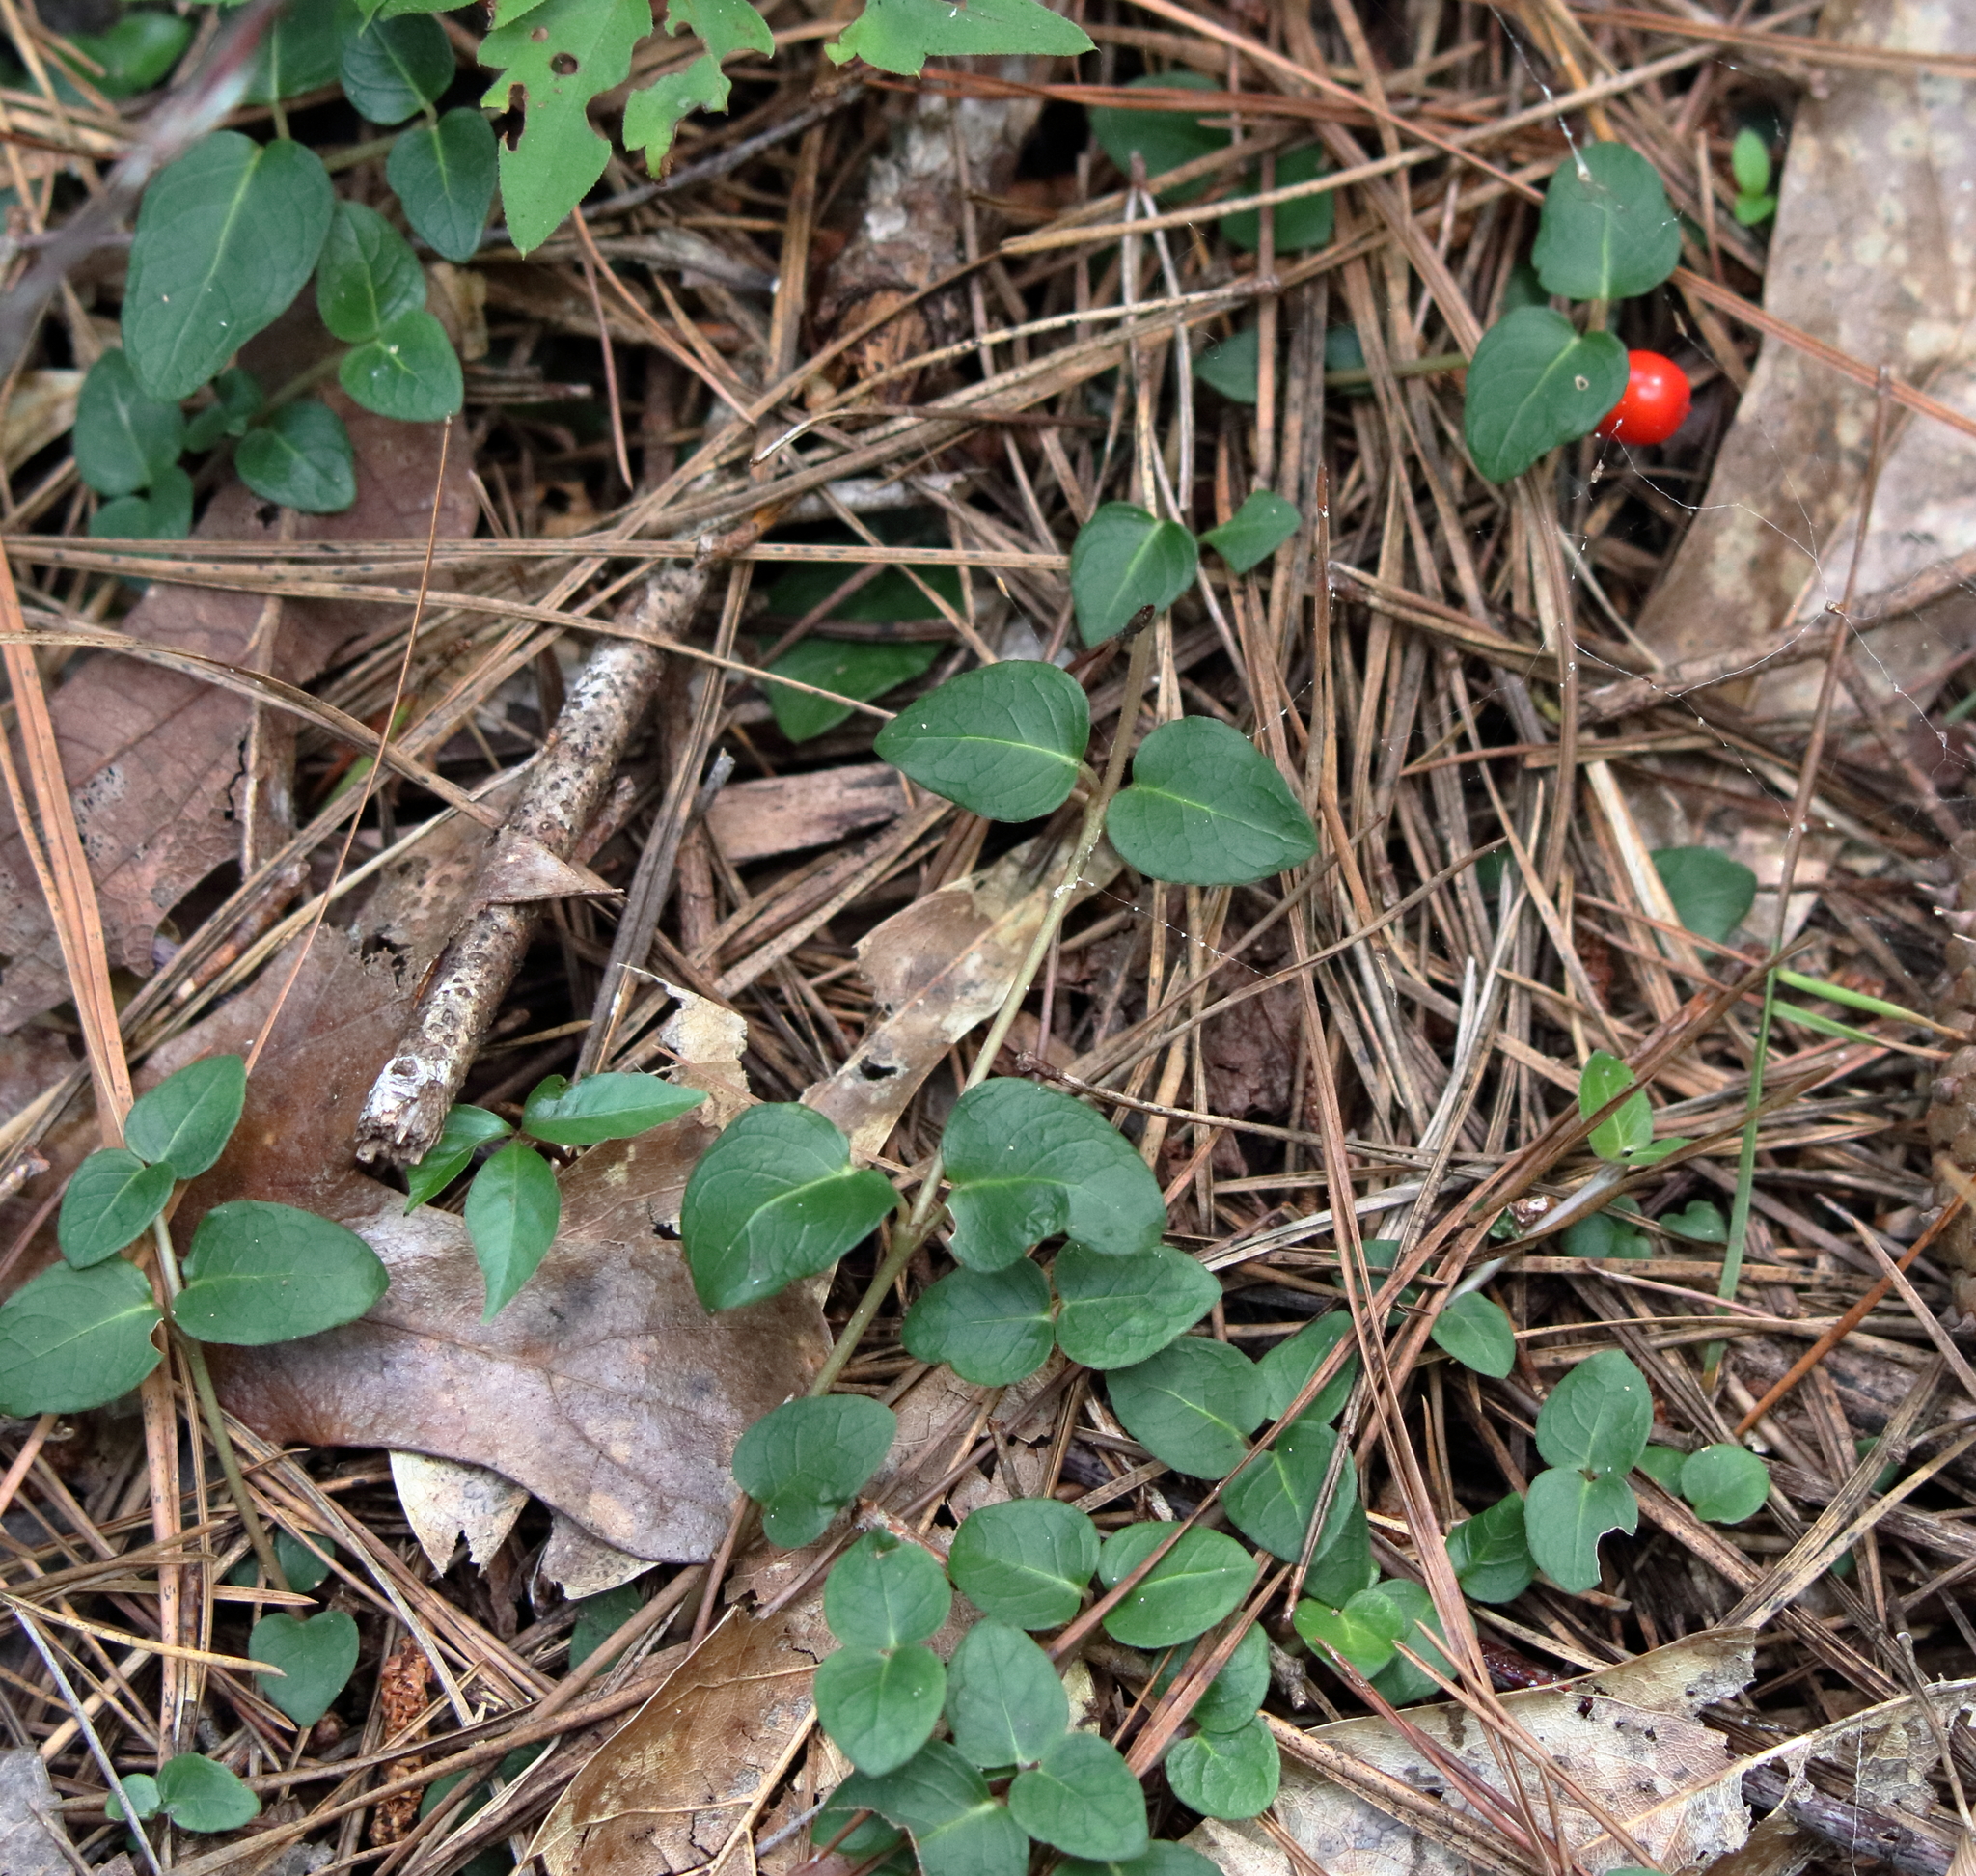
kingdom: Plantae
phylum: Tracheophyta
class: Magnoliopsida
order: Gentianales
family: Rubiaceae
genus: Mitchella
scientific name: Mitchella repens
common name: Partridge-berry
